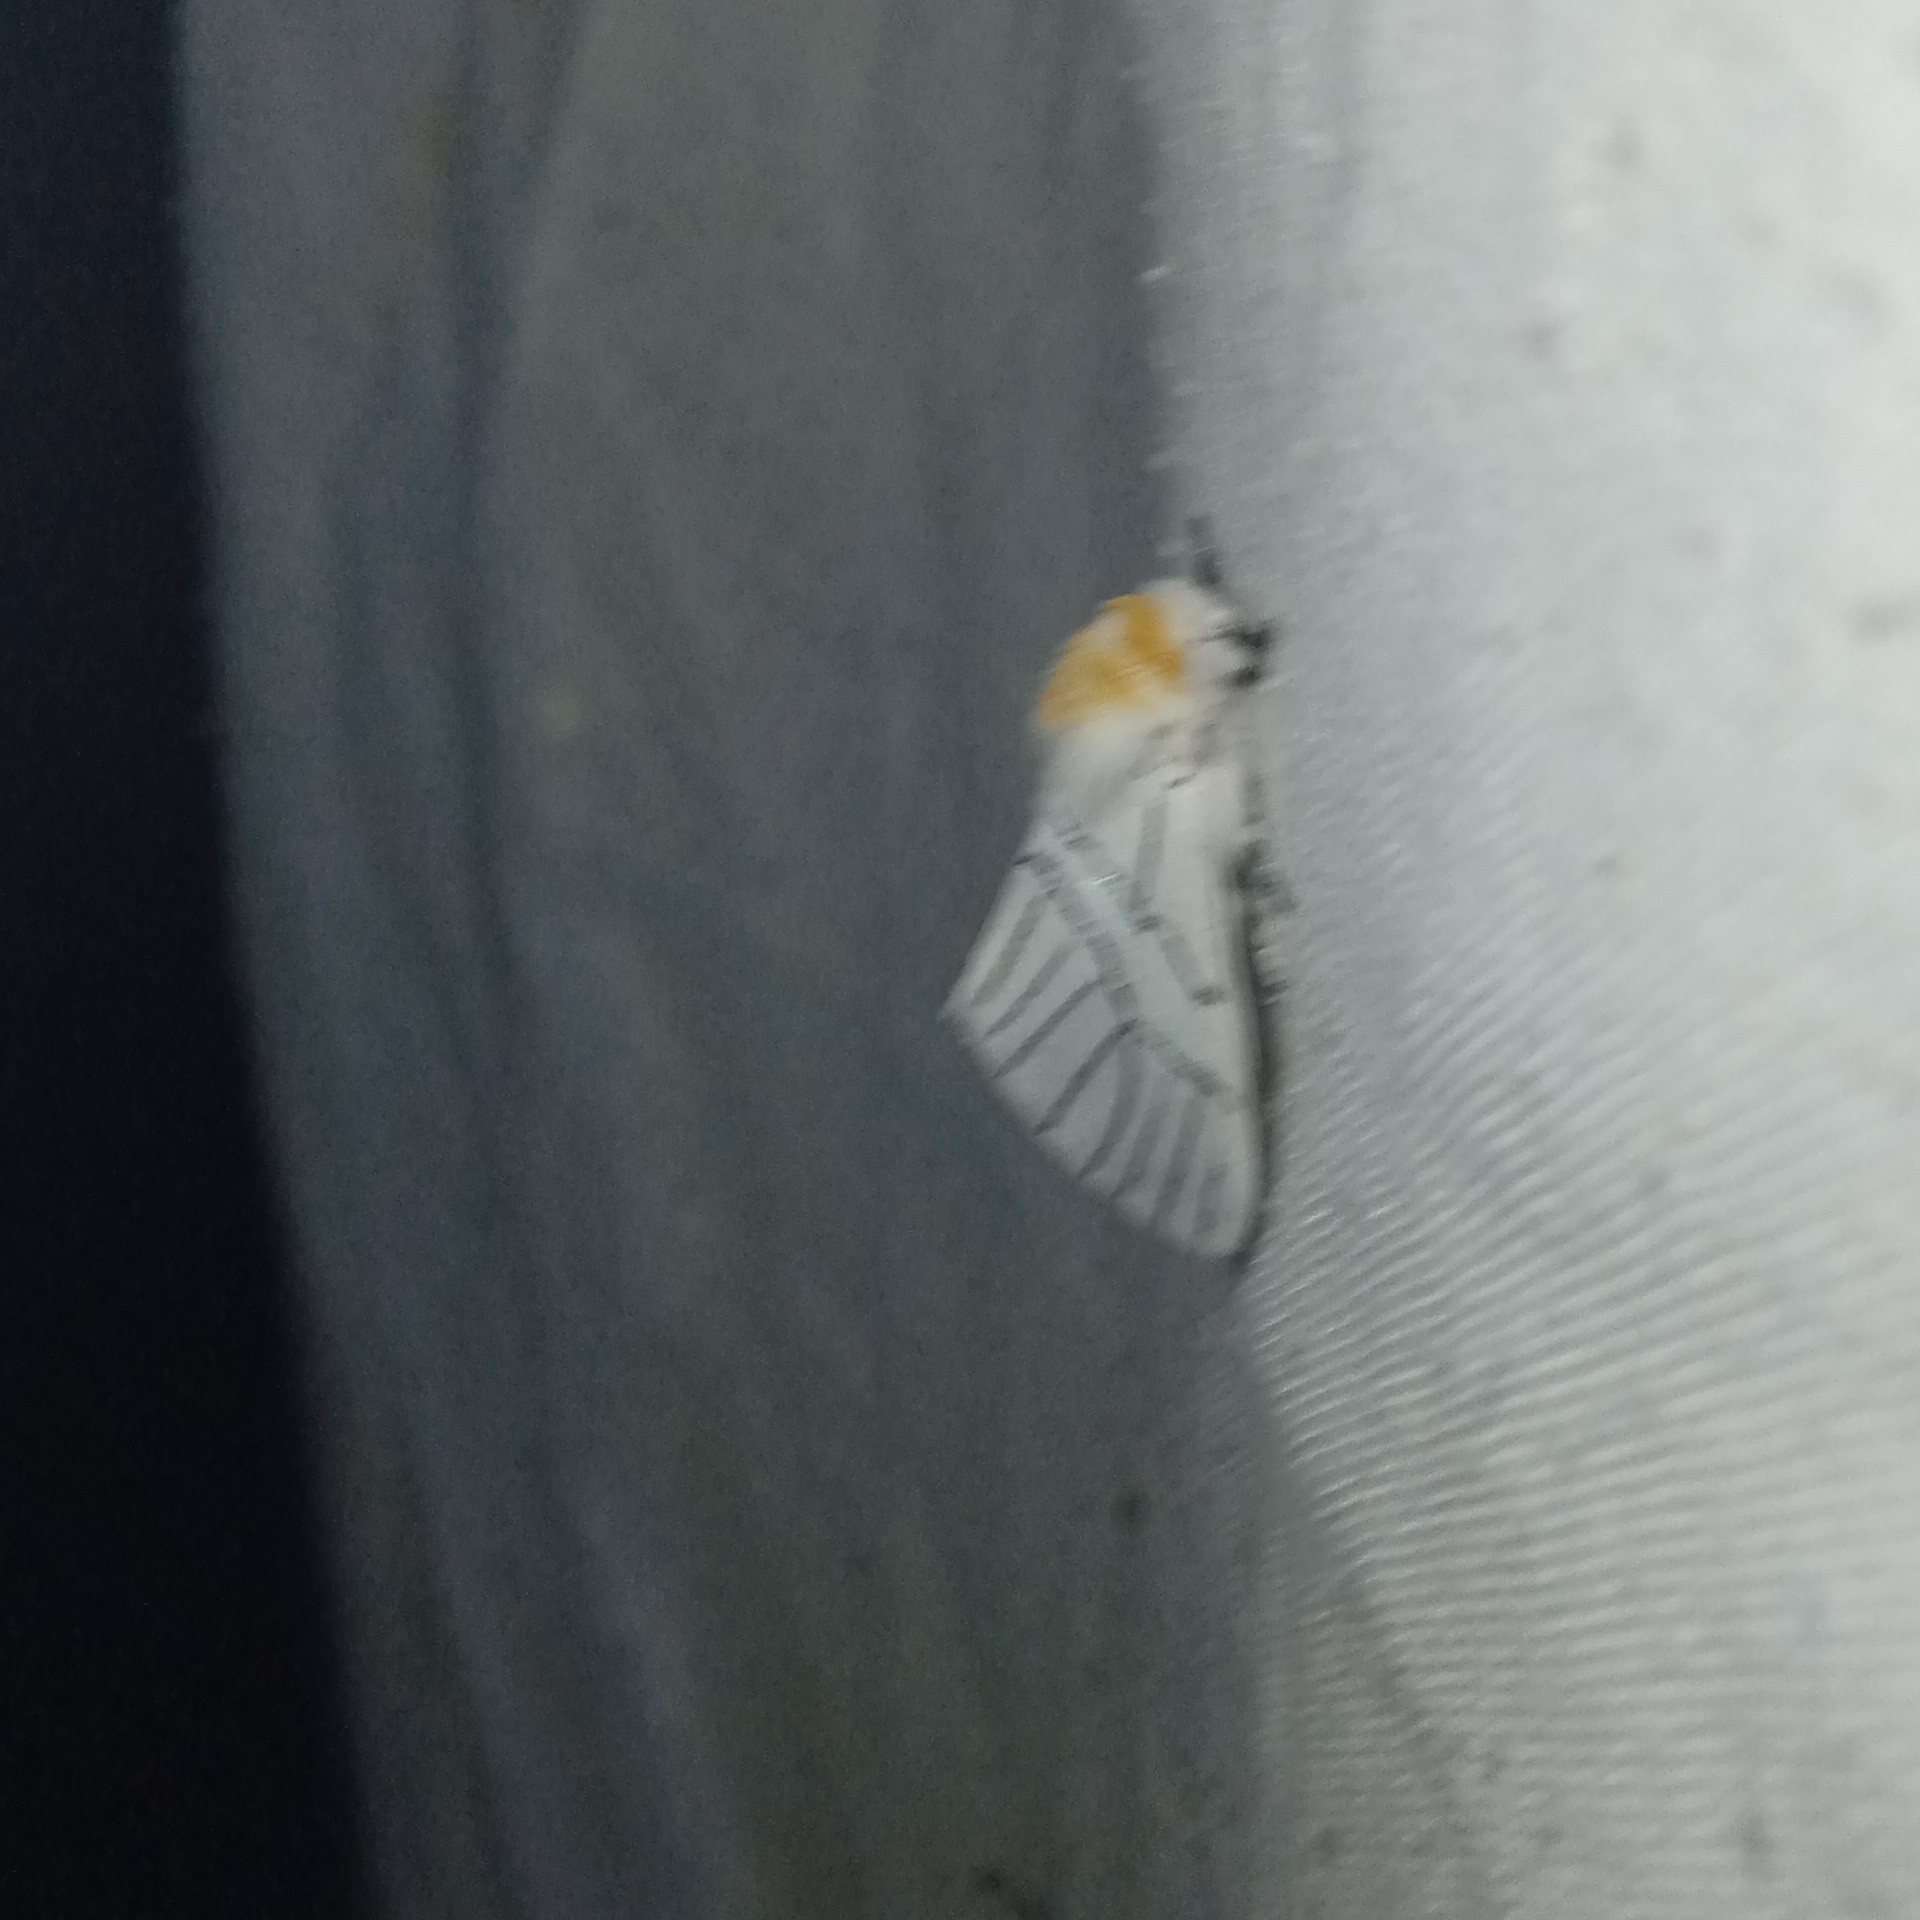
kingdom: Animalia
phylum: Arthropoda
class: Insecta
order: Lepidoptera
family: Notodontidae
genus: Oligoclona
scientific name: Oligoclona chrysolopha
